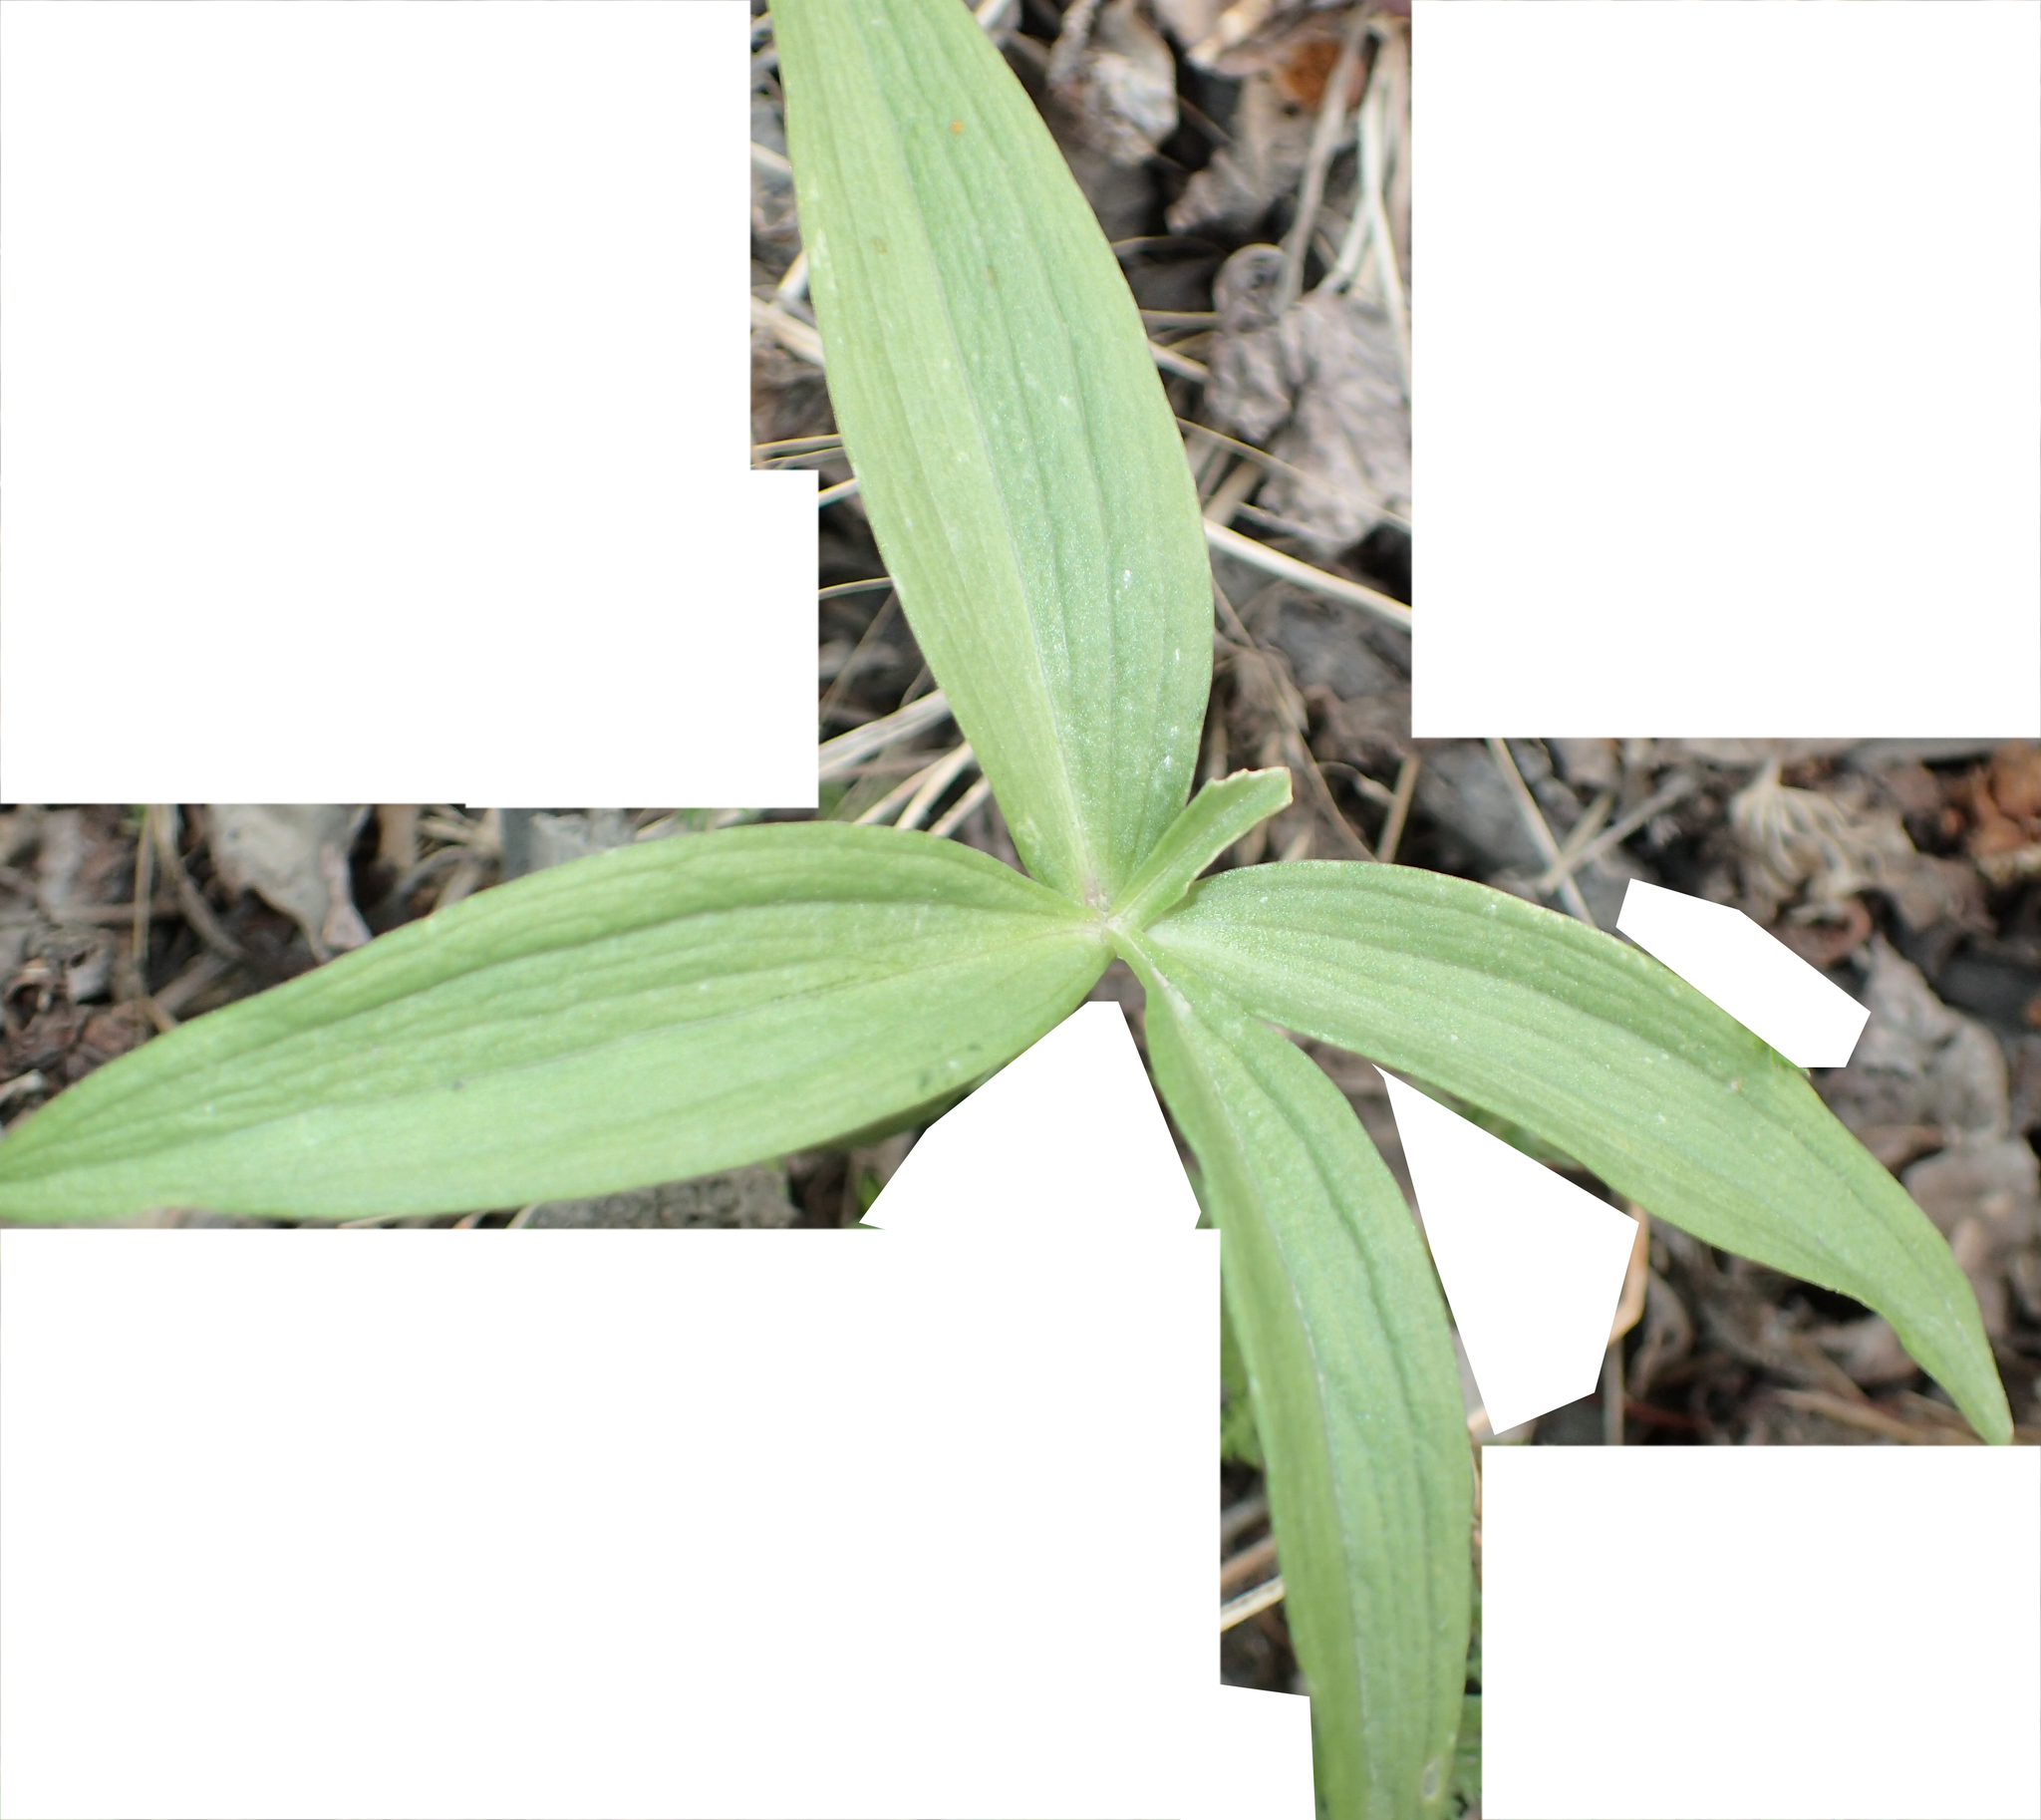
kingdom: Plantae
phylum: Tracheophyta
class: Liliopsida
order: Liliales
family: Liliaceae
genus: Fritillaria
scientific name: Fritillaria camschatcensis
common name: Kamchatka fritillary
